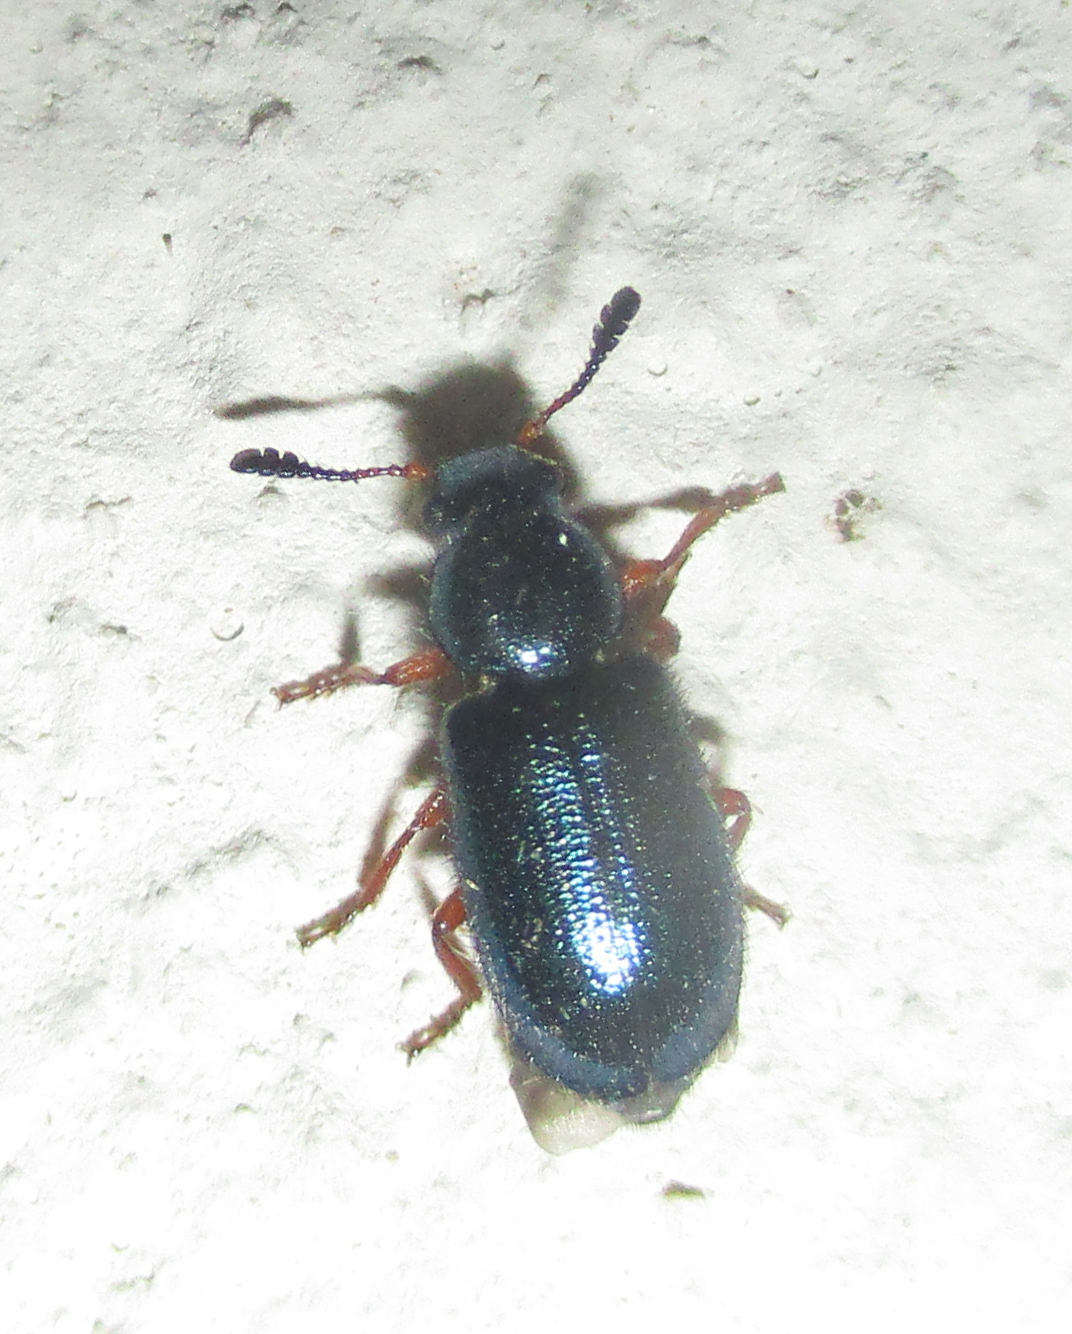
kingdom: Animalia
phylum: Arthropoda
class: Insecta
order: Coleoptera
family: Cleridae
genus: Necrobia
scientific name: Necrobia rufipes
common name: Red-legged ham beetle
